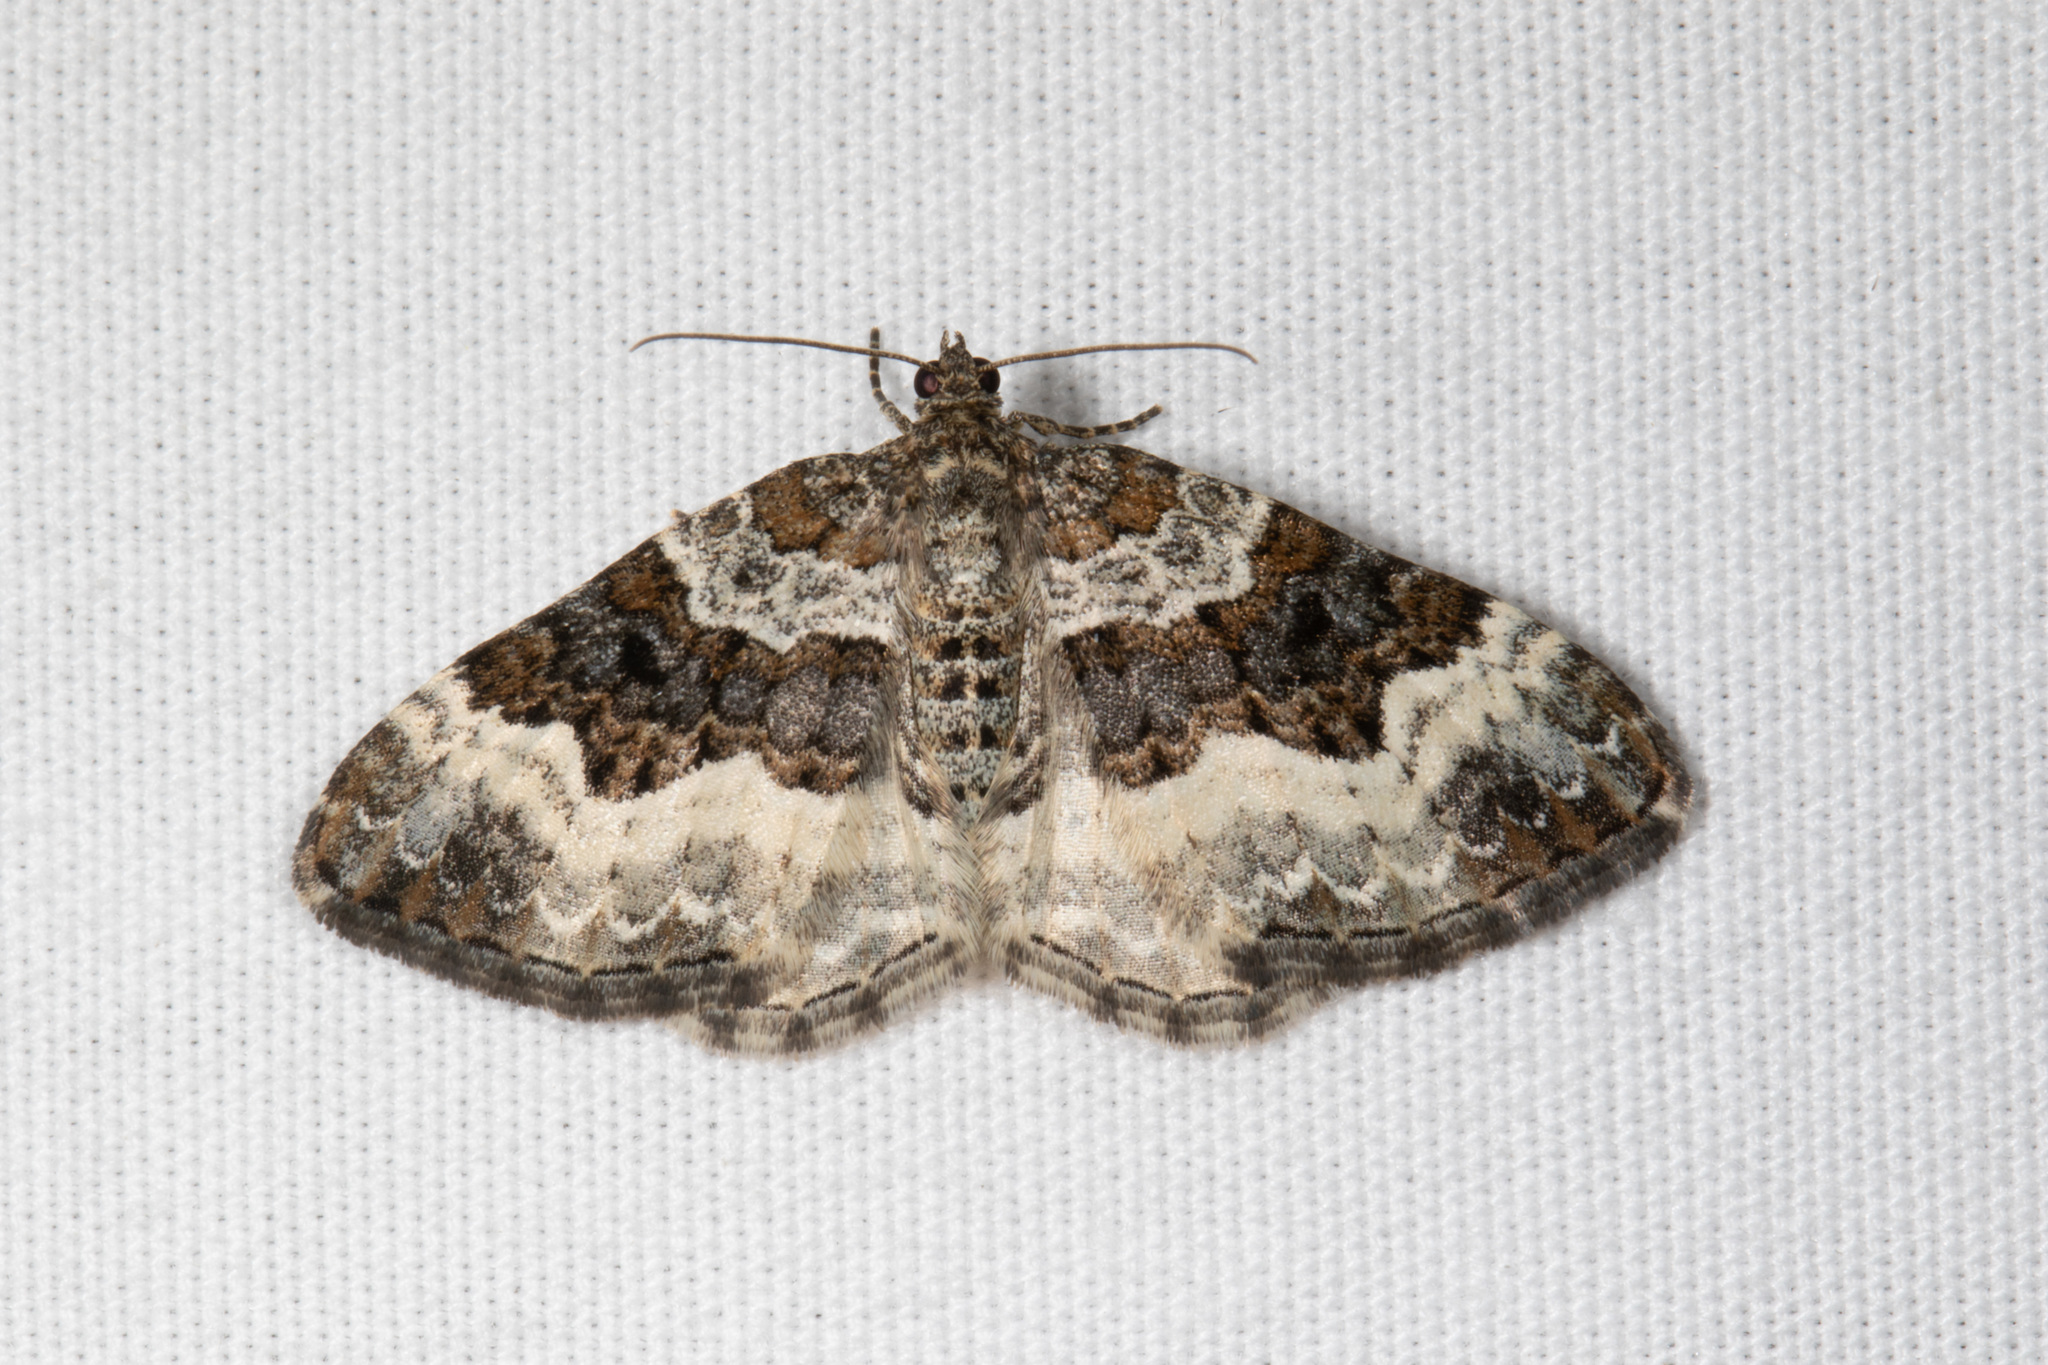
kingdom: Animalia
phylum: Arthropoda
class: Insecta
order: Lepidoptera
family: Geometridae
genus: Epirrhoe
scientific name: Epirrhoe alternata
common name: Common carpet
